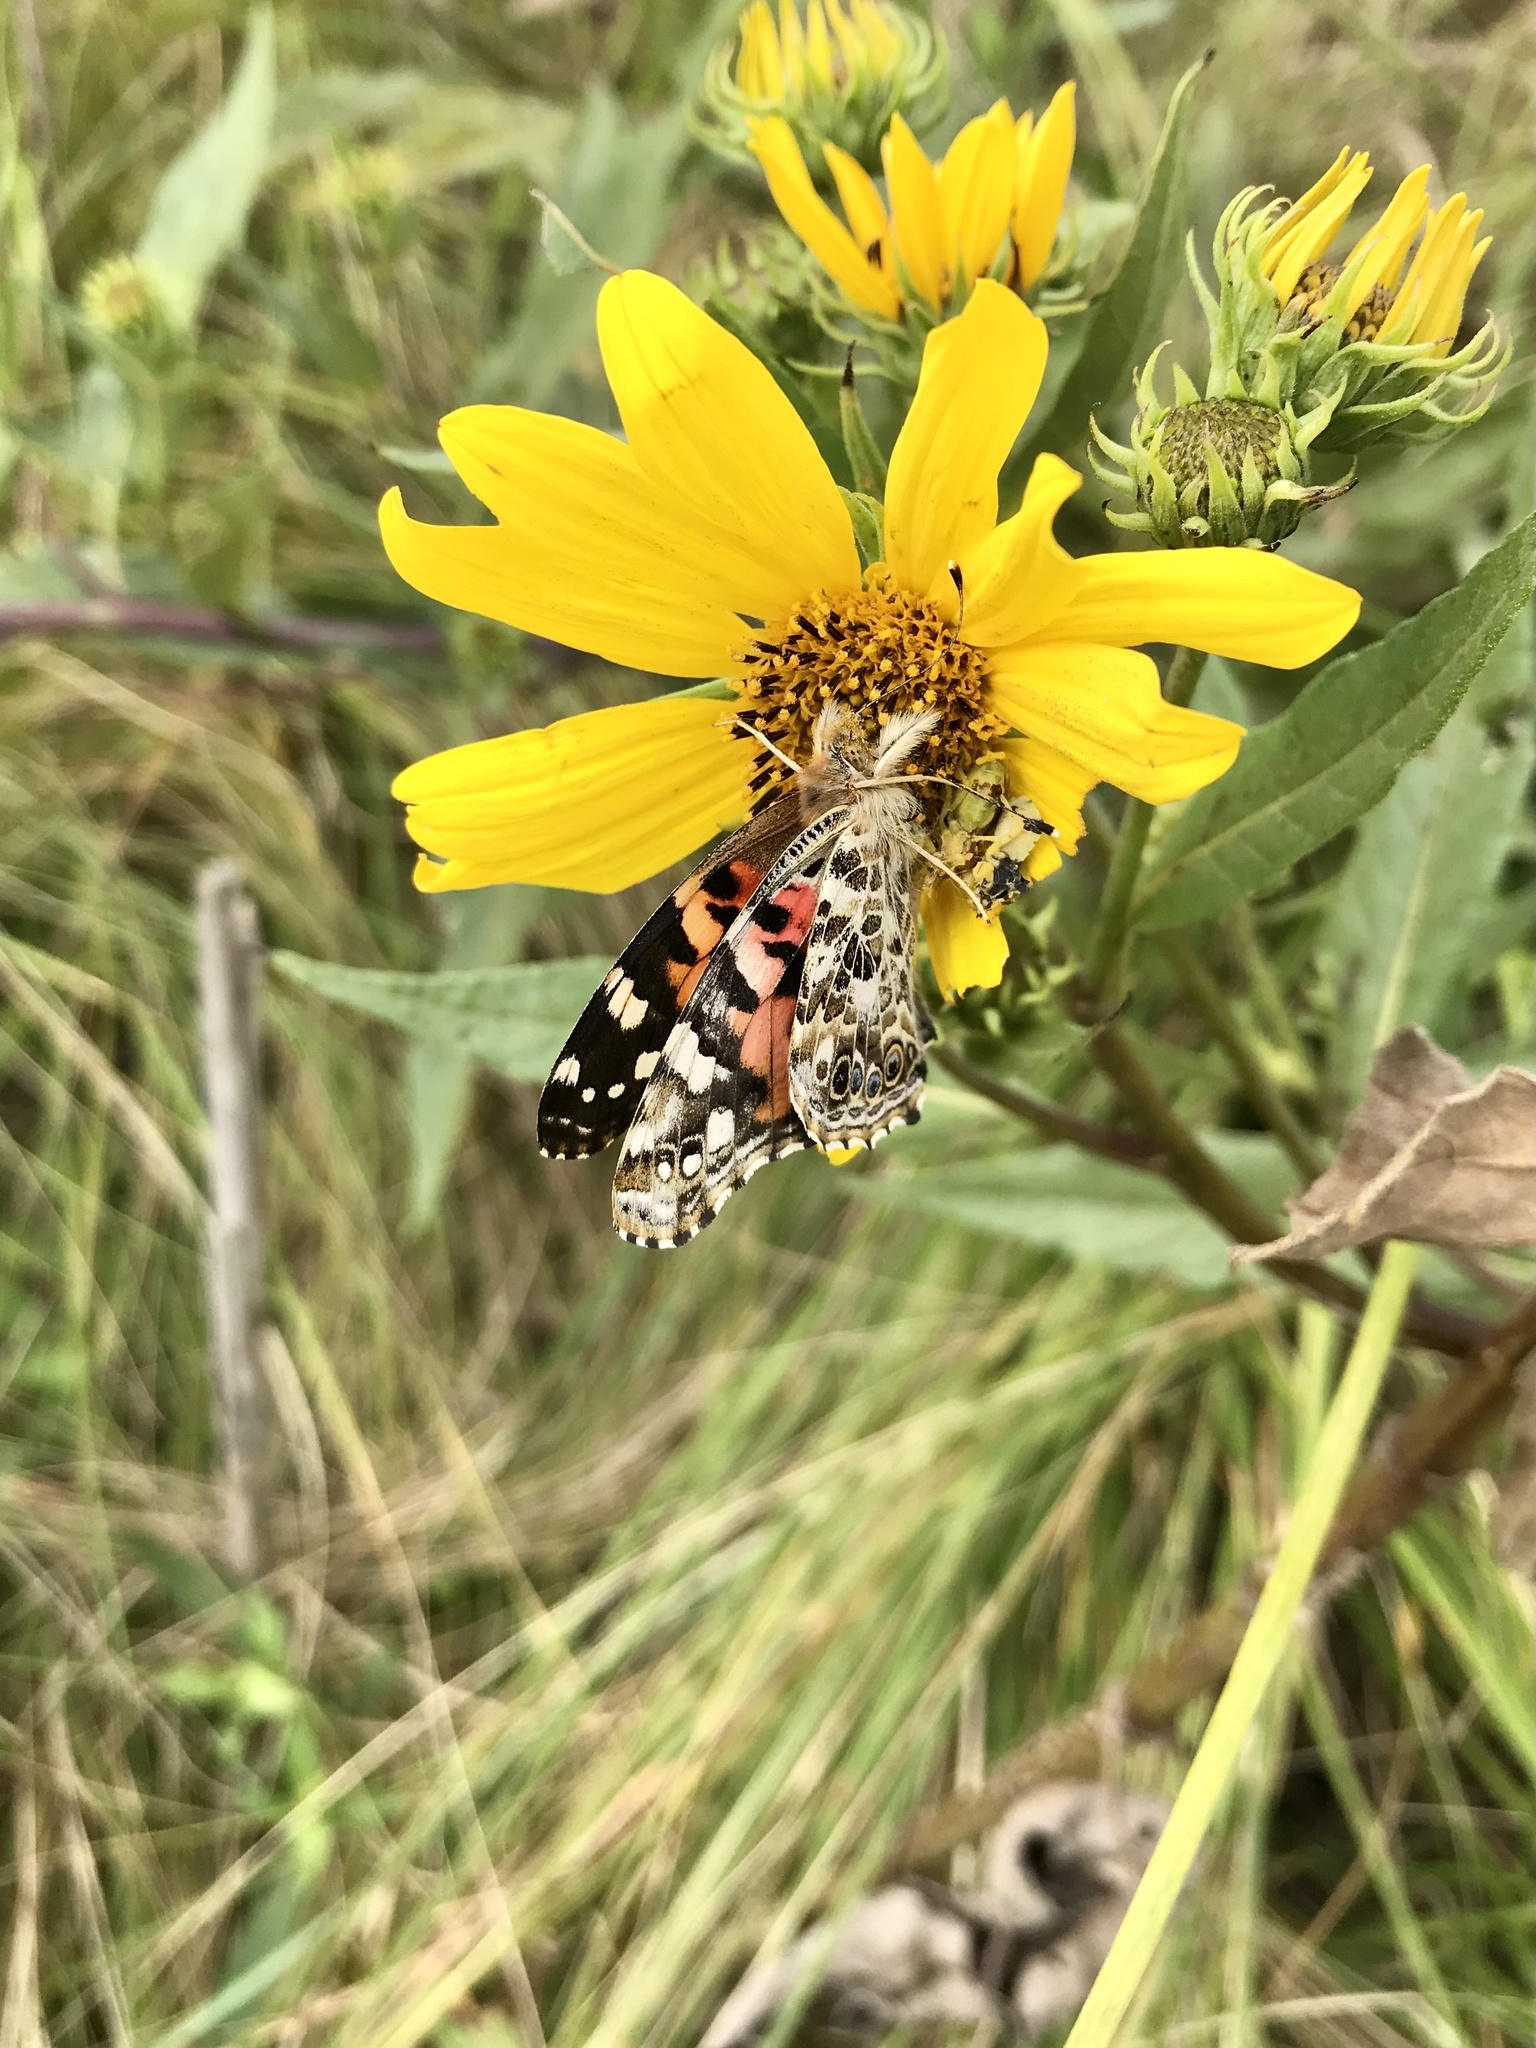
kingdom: Animalia
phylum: Arthropoda
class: Insecta
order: Lepidoptera
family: Nymphalidae
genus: Vanessa
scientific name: Vanessa cardui
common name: Painted lady
